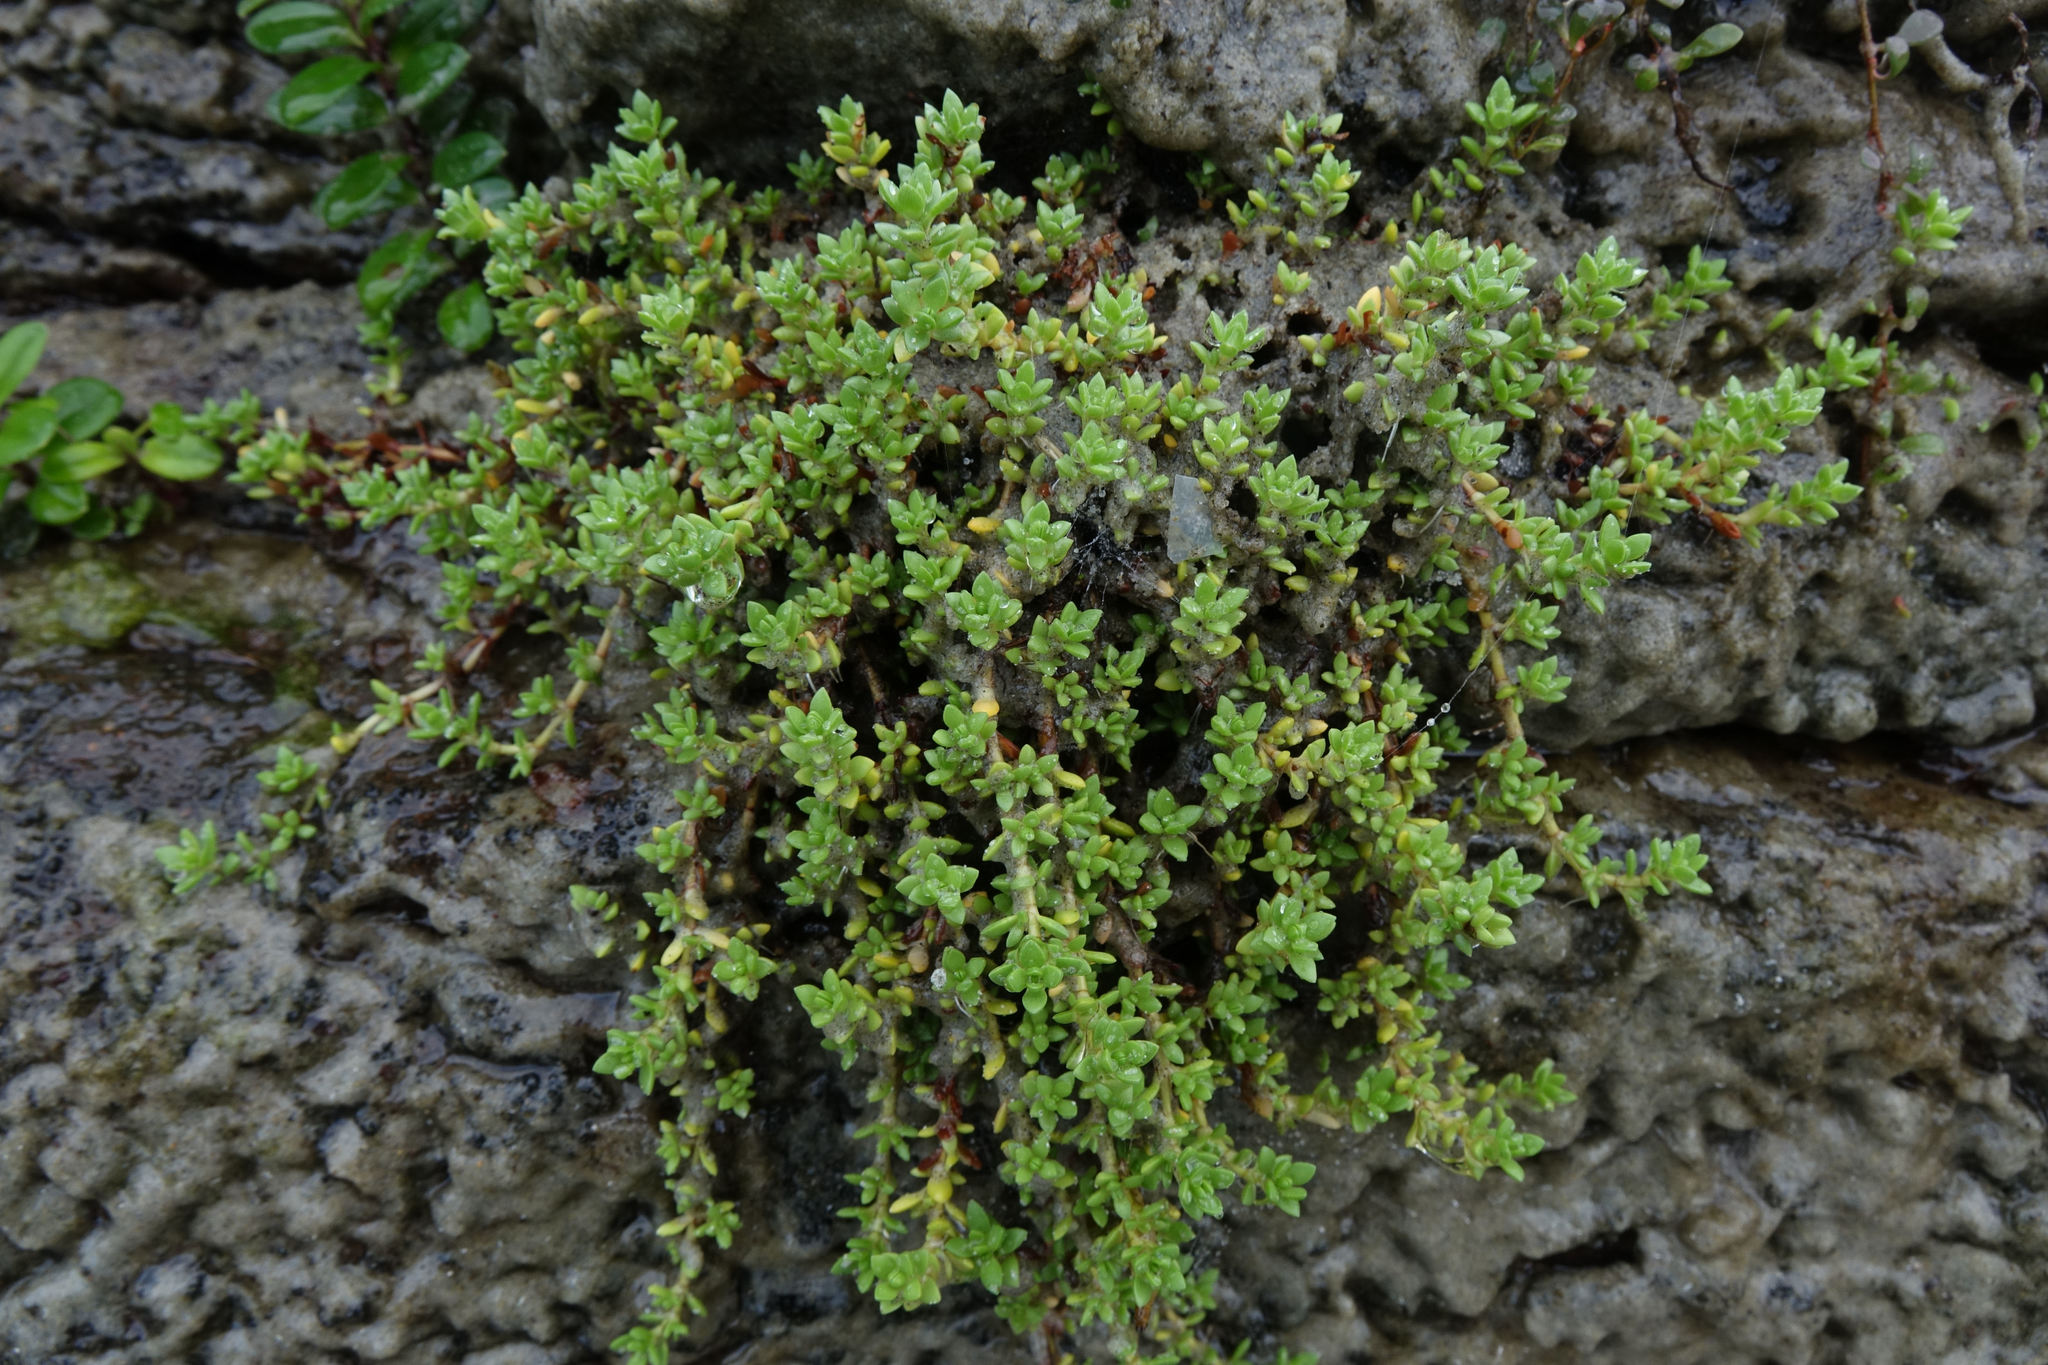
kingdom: Plantae
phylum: Tracheophyta
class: Magnoliopsida
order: Saxifragales
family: Crassulaceae
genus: Crassula
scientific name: Crassula moschata
